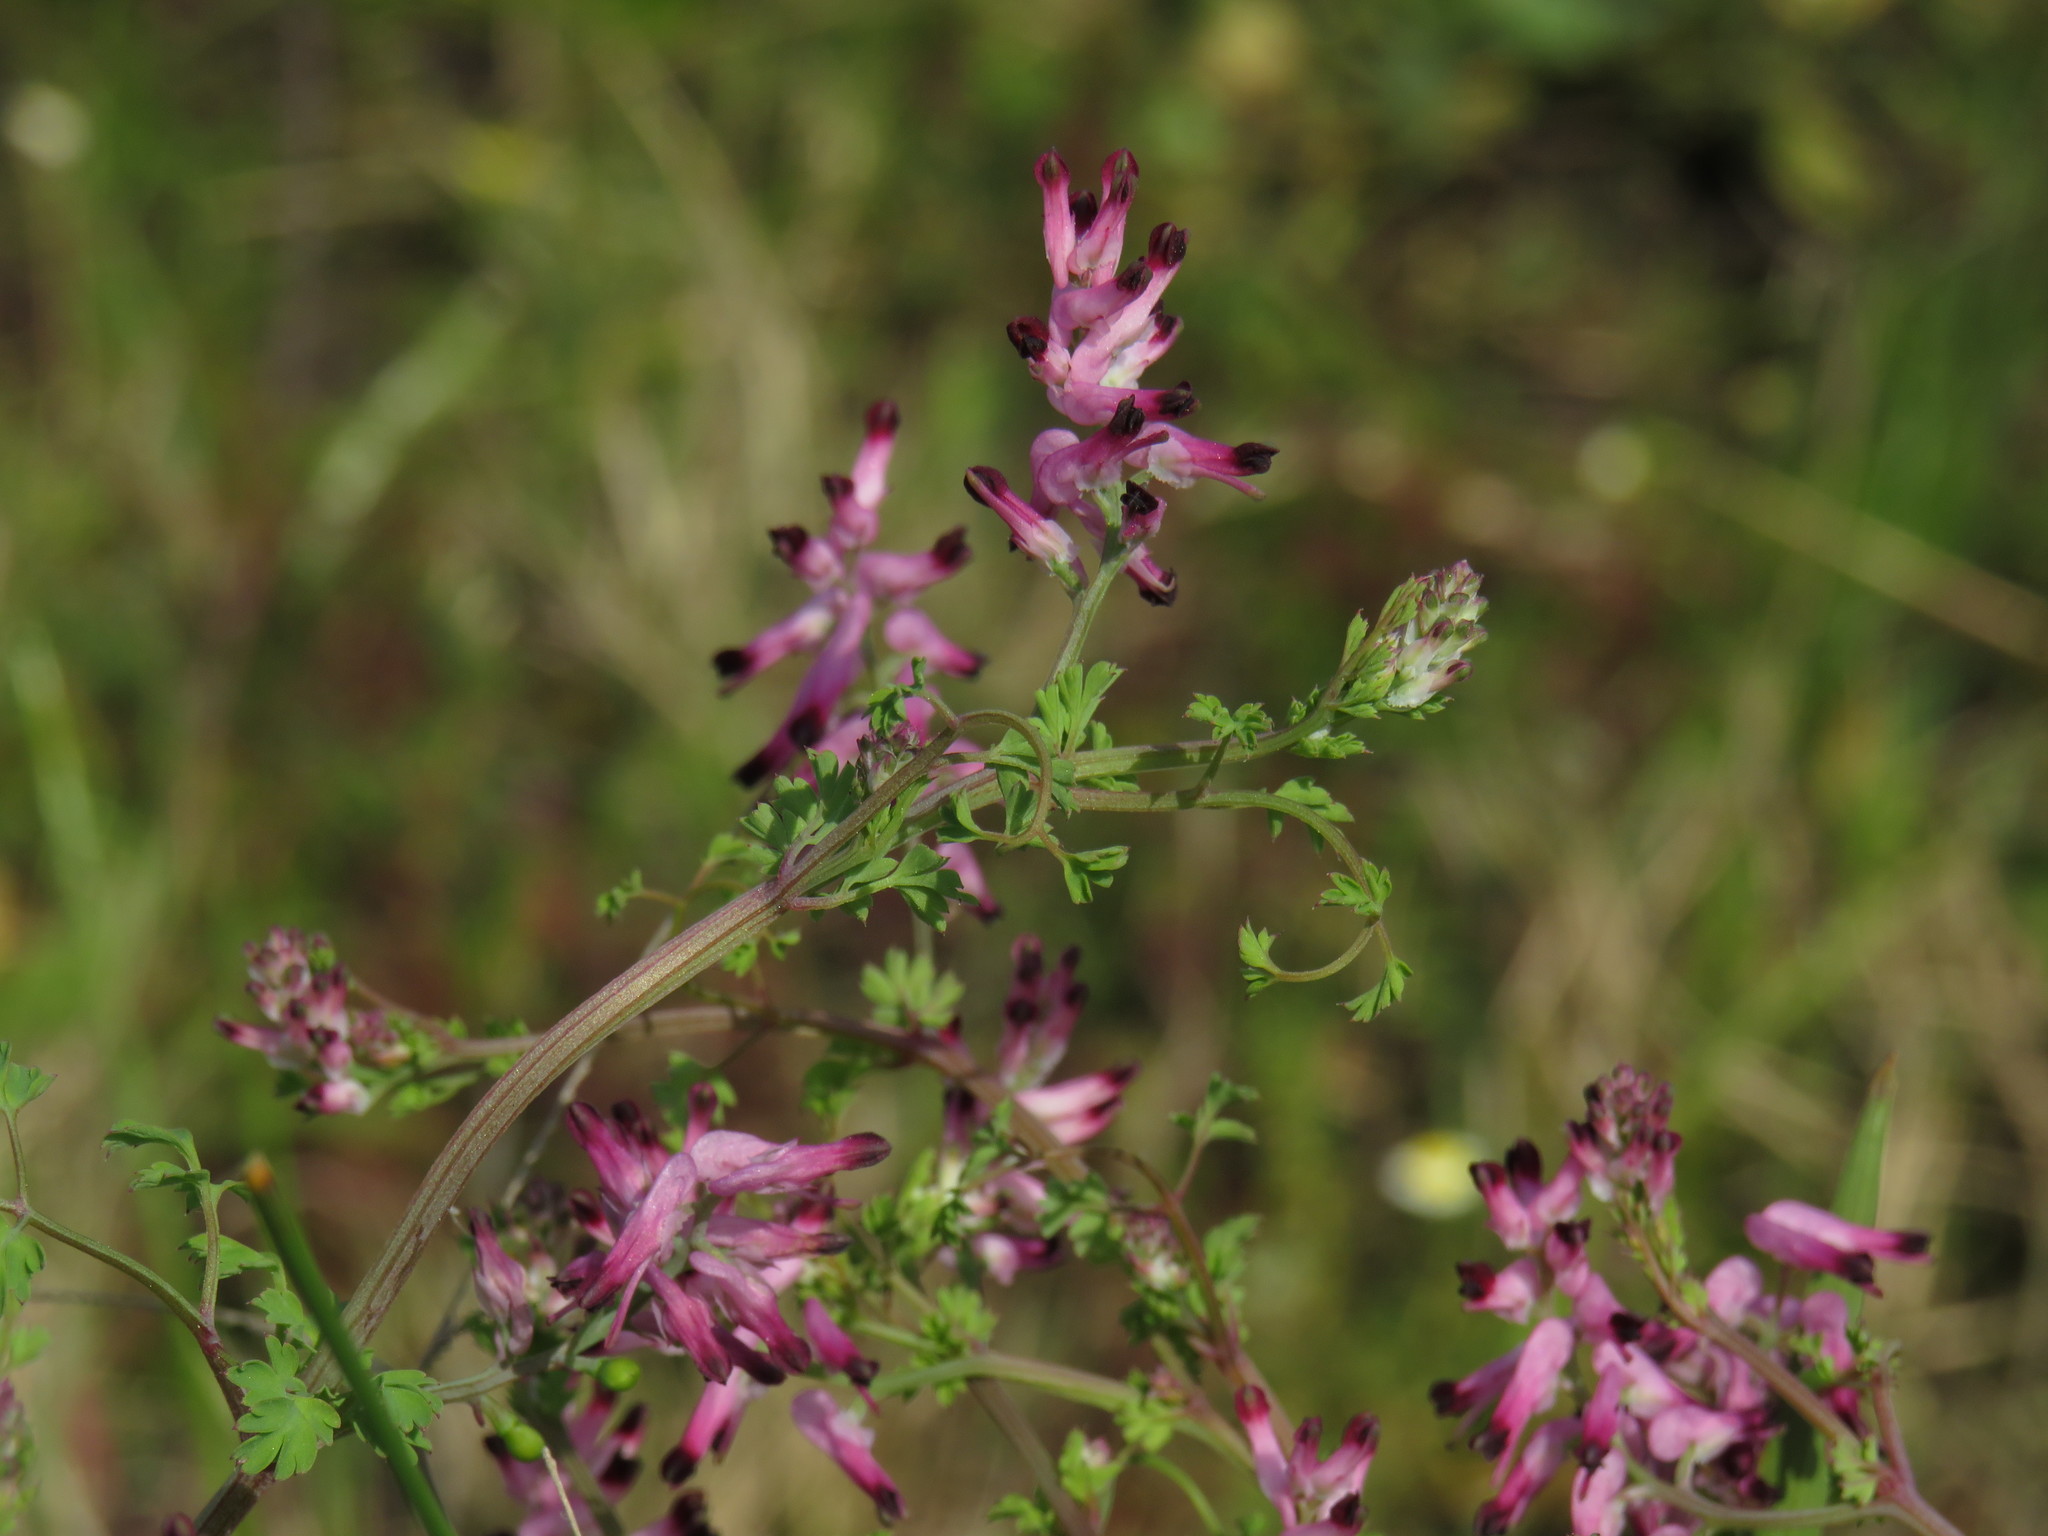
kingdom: Plantae
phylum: Tracheophyta
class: Magnoliopsida
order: Ranunculales
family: Papaveraceae
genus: Fumaria
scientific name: Fumaria muralis
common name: Common ramping-fumitory
